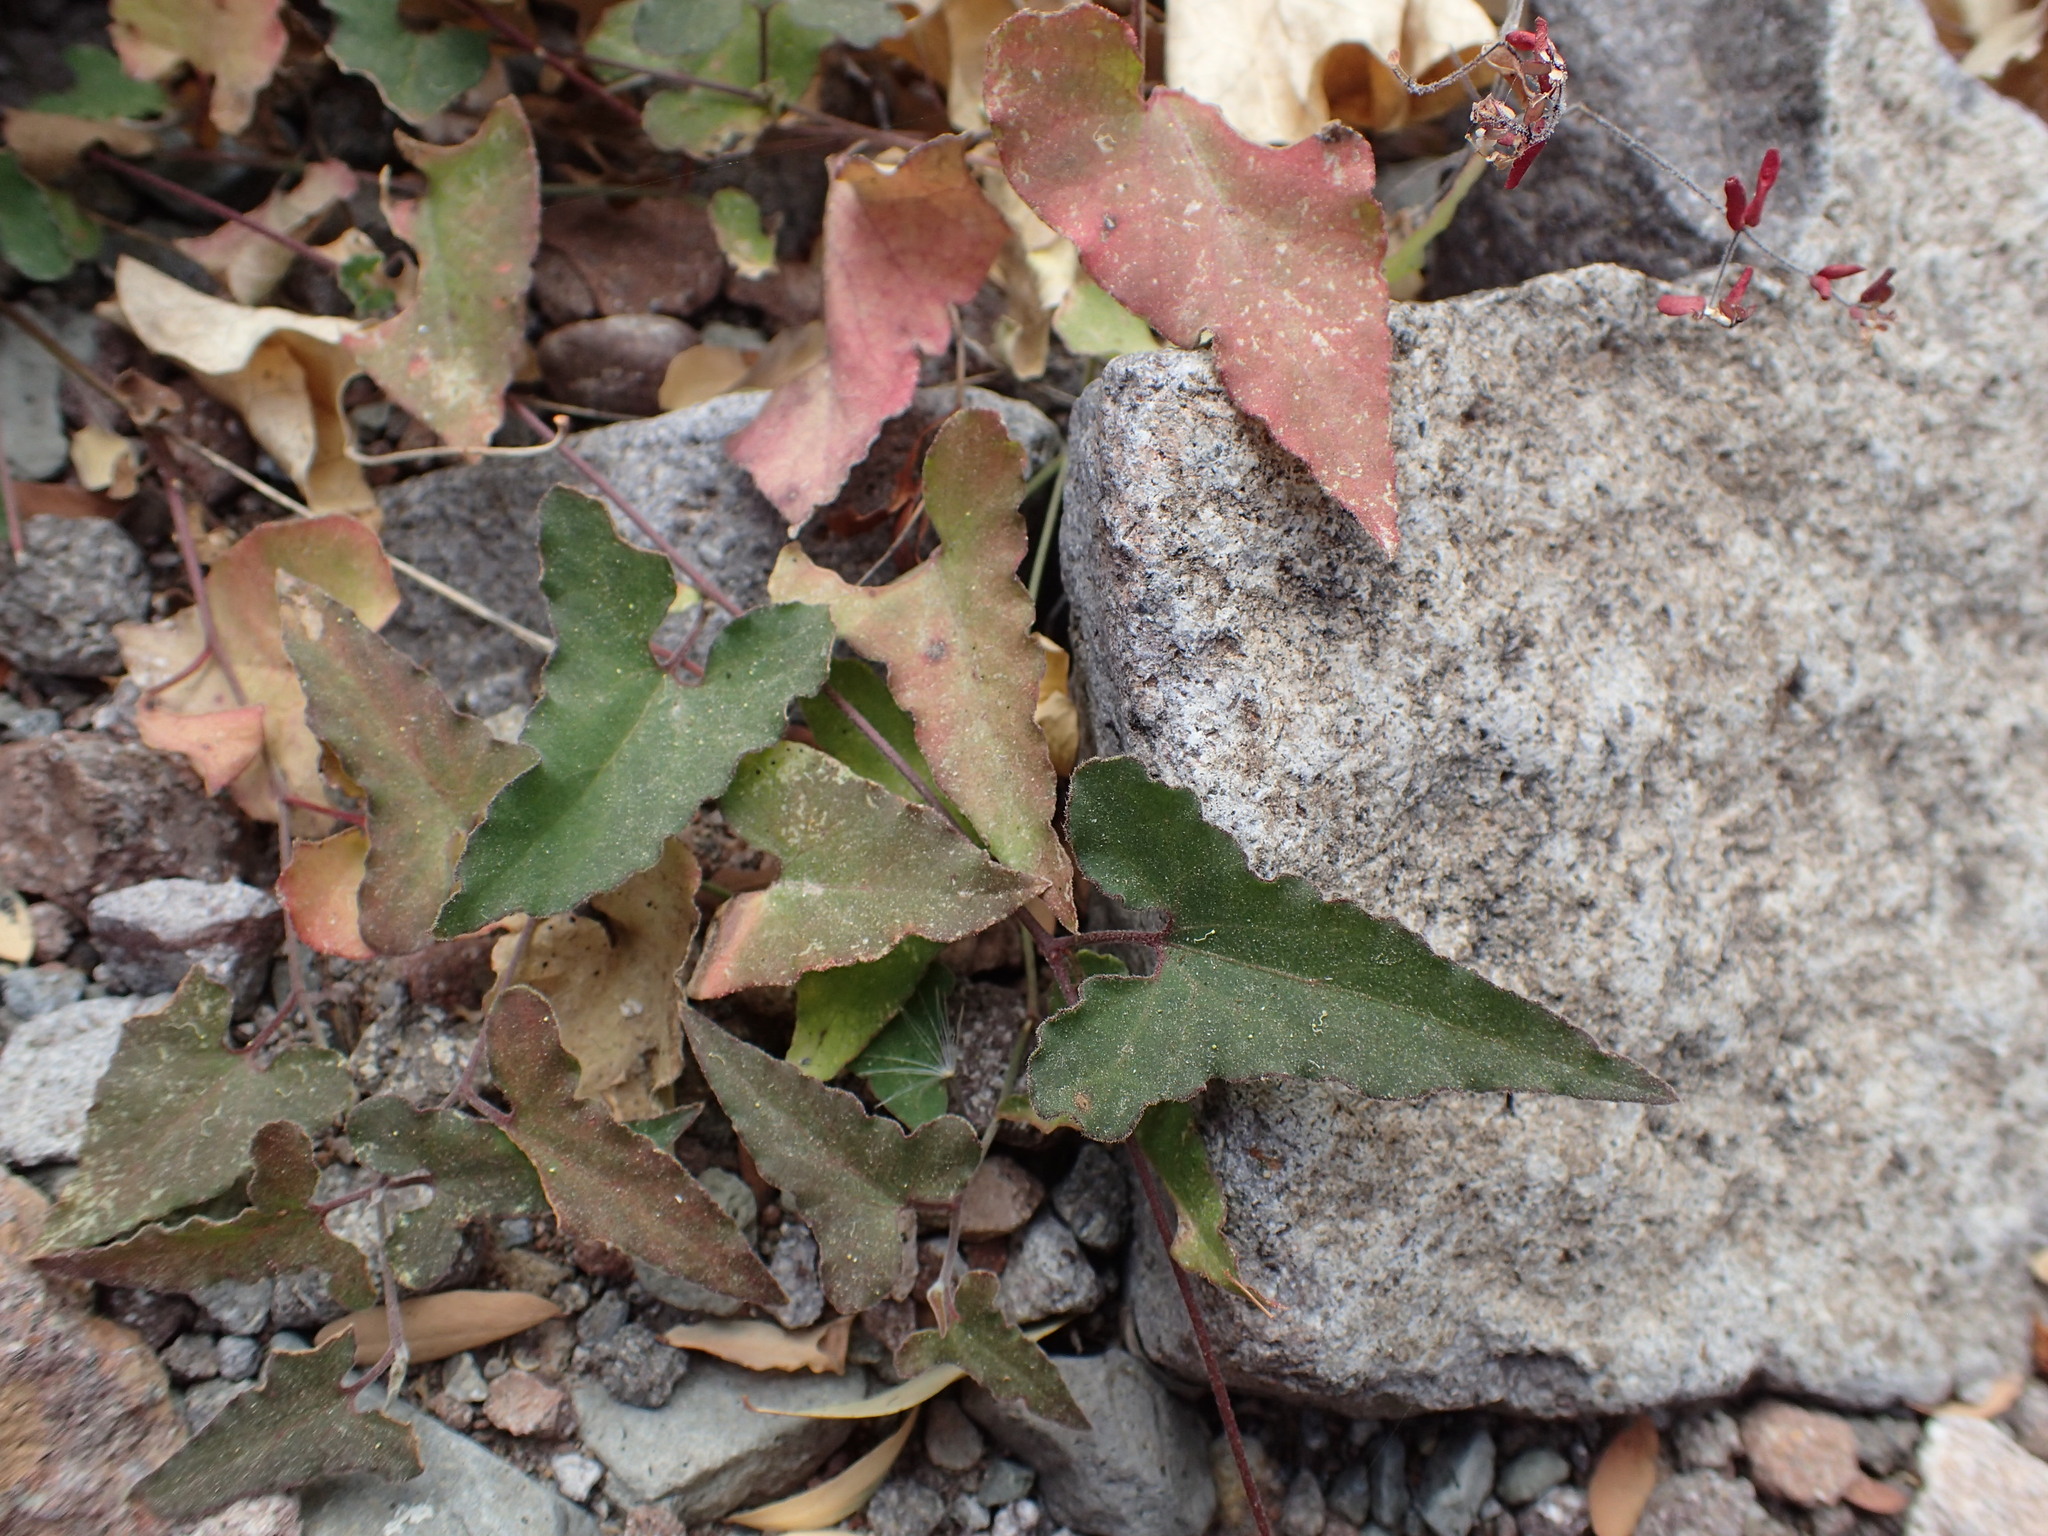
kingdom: Plantae
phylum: Tracheophyta
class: Magnoliopsida
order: Piperales
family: Aristolochiaceae
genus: Aristolochia
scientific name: Aristolochia watsonii
